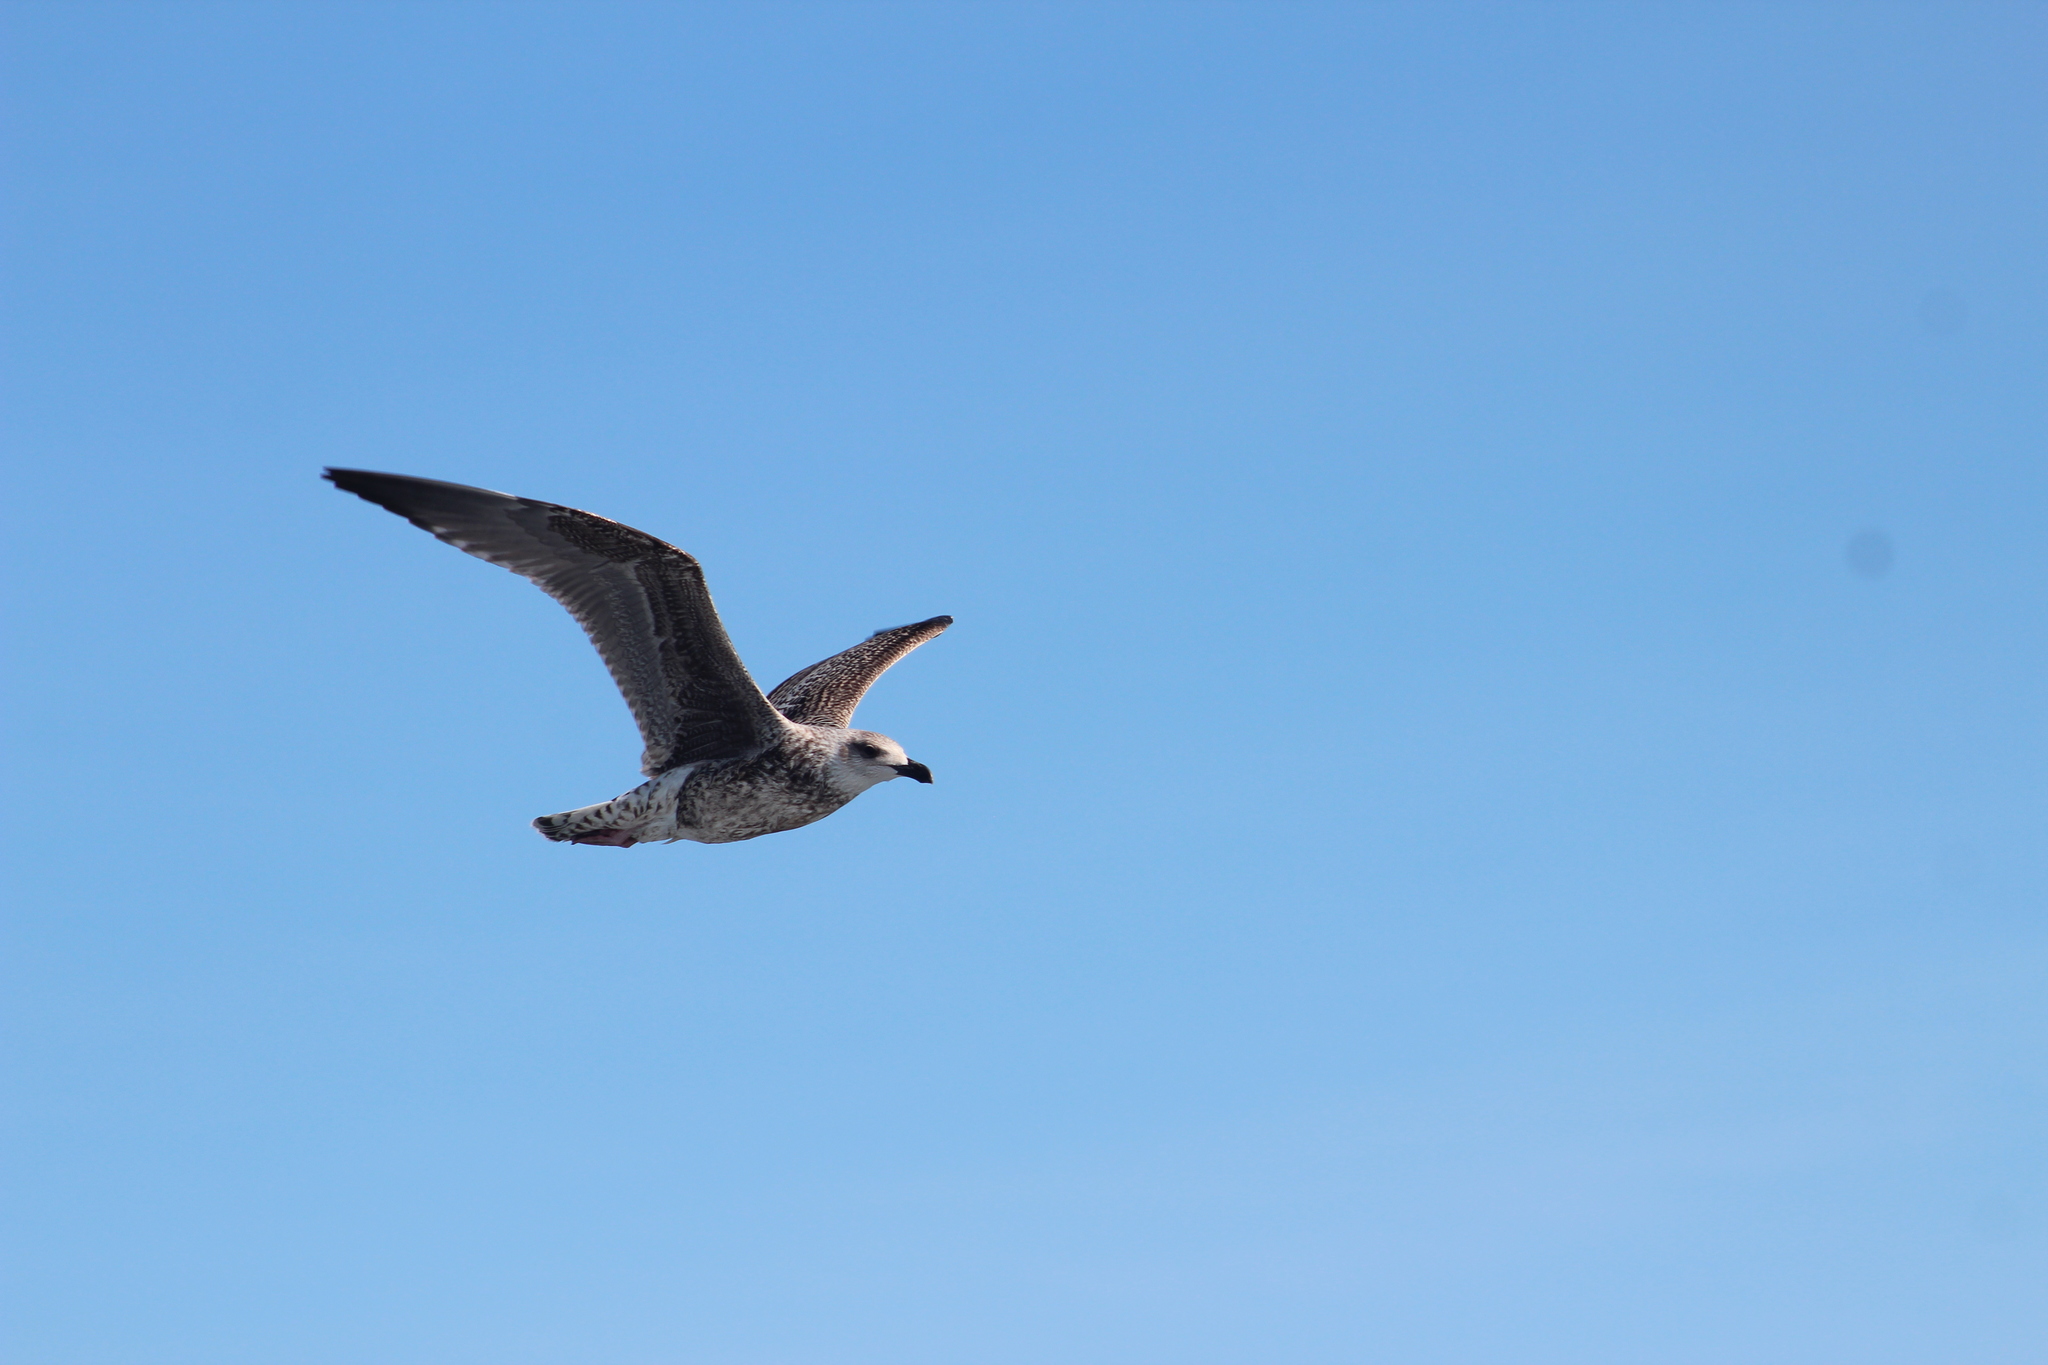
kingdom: Animalia
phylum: Chordata
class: Aves
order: Charadriiformes
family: Laridae
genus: Larus
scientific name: Larus marinus
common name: Great black-backed gull
